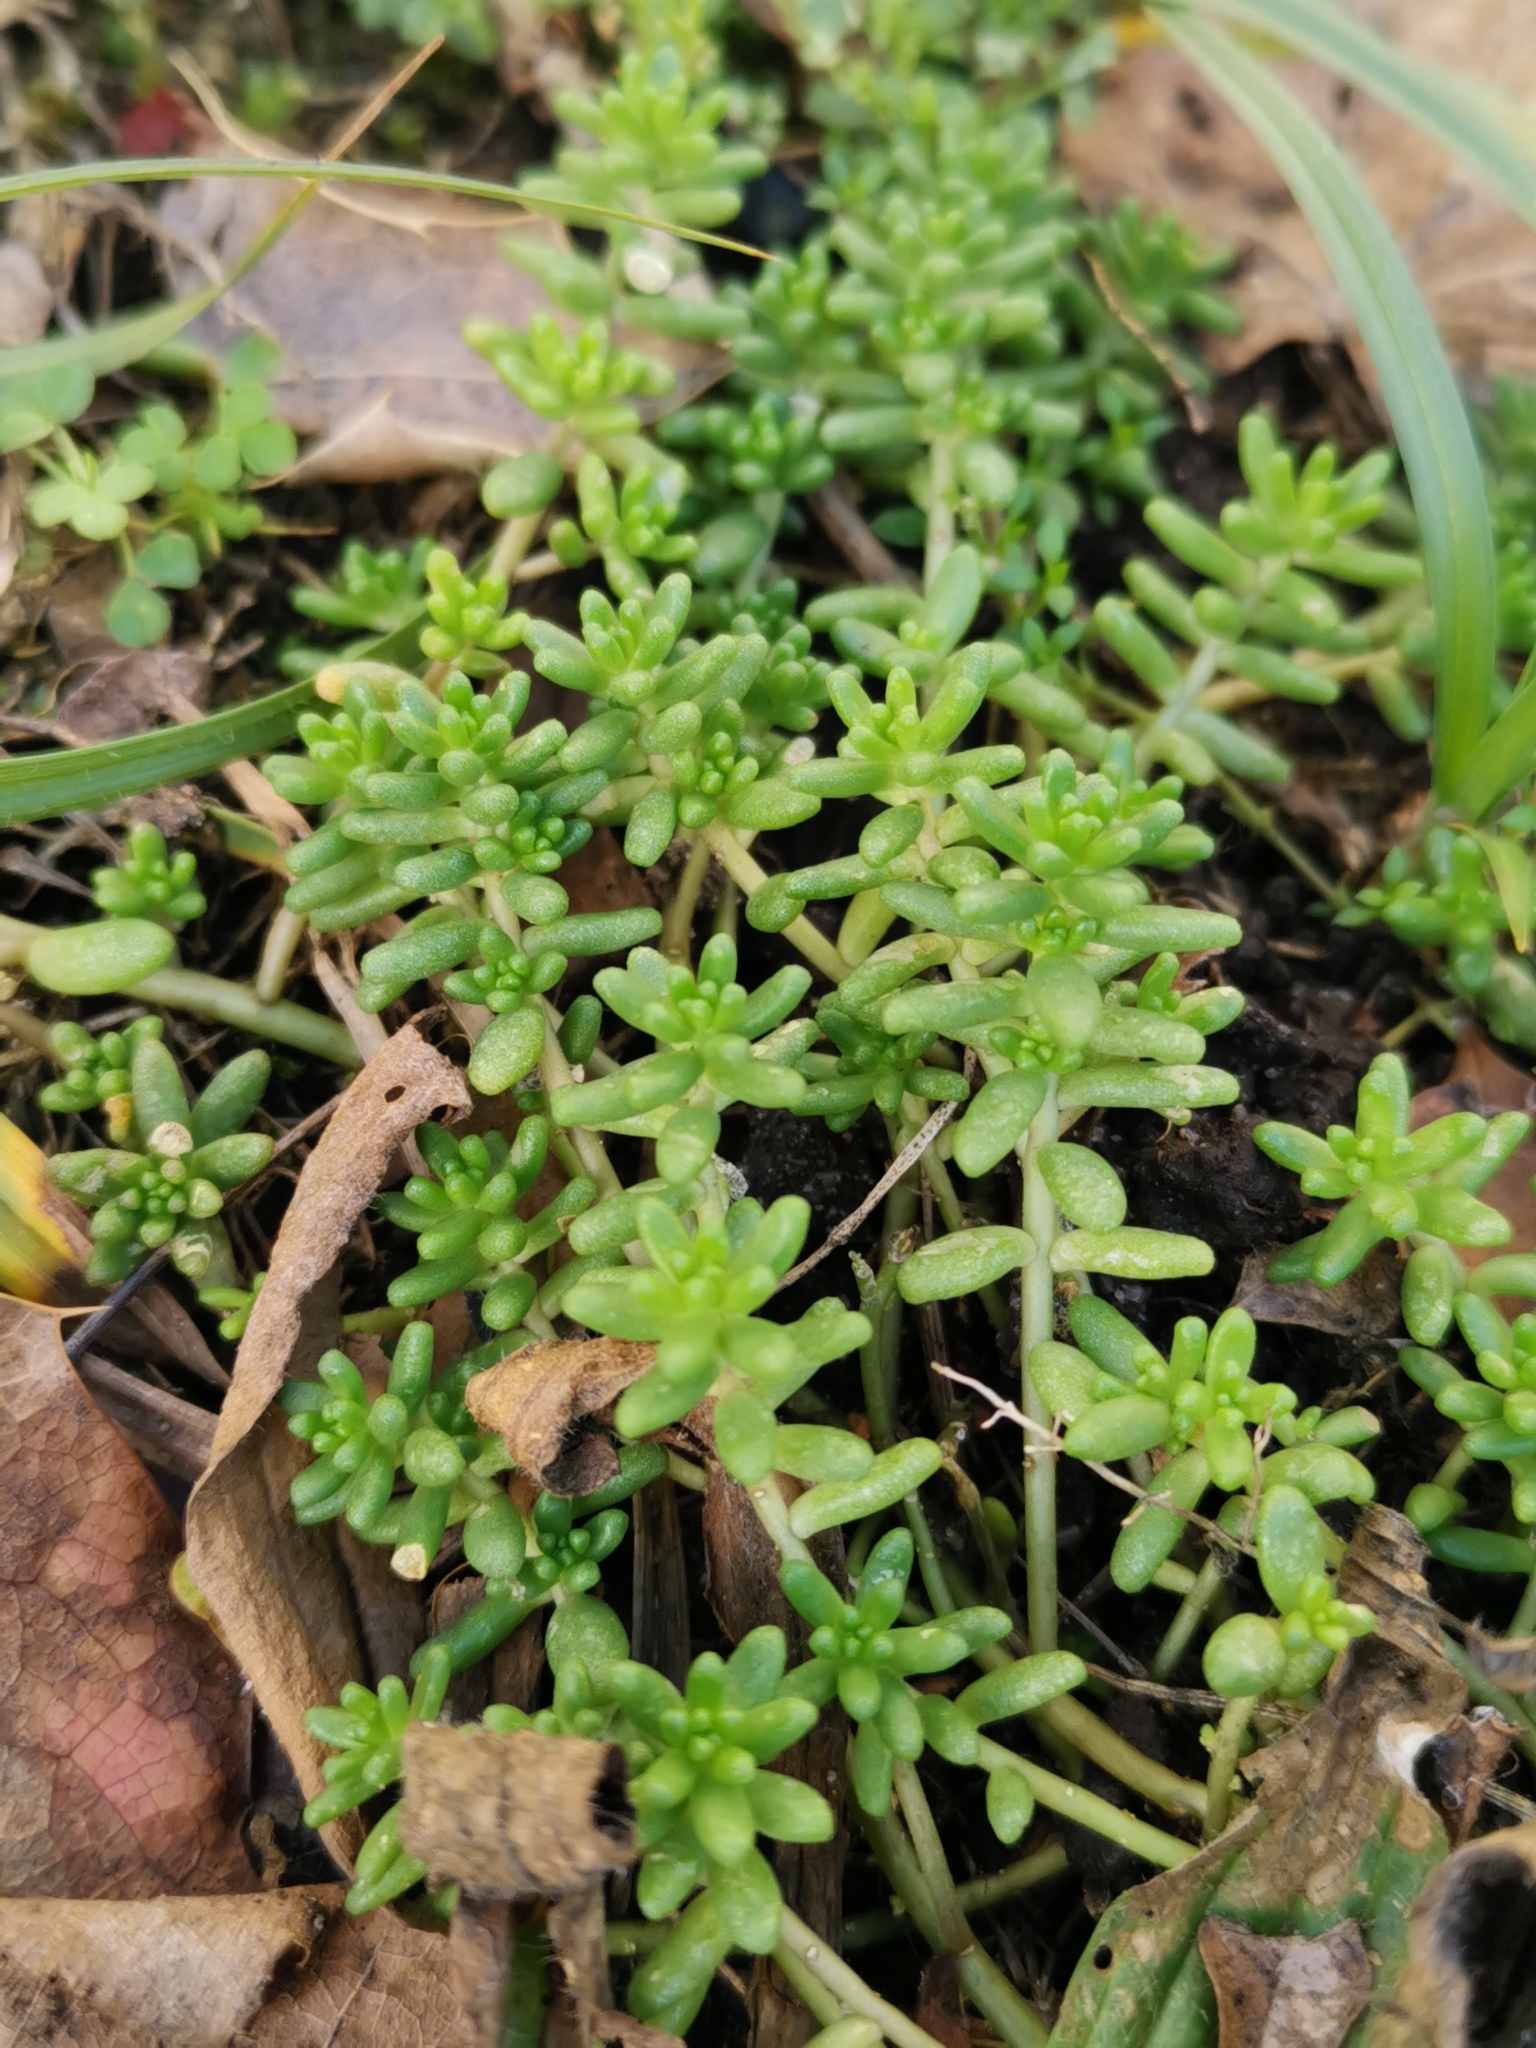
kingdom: Plantae
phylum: Tracheophyta
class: Magnoliopsida
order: Saxifragales
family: Crassulaceae
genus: Sedum
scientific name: Sedum album
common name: White stonecrop
